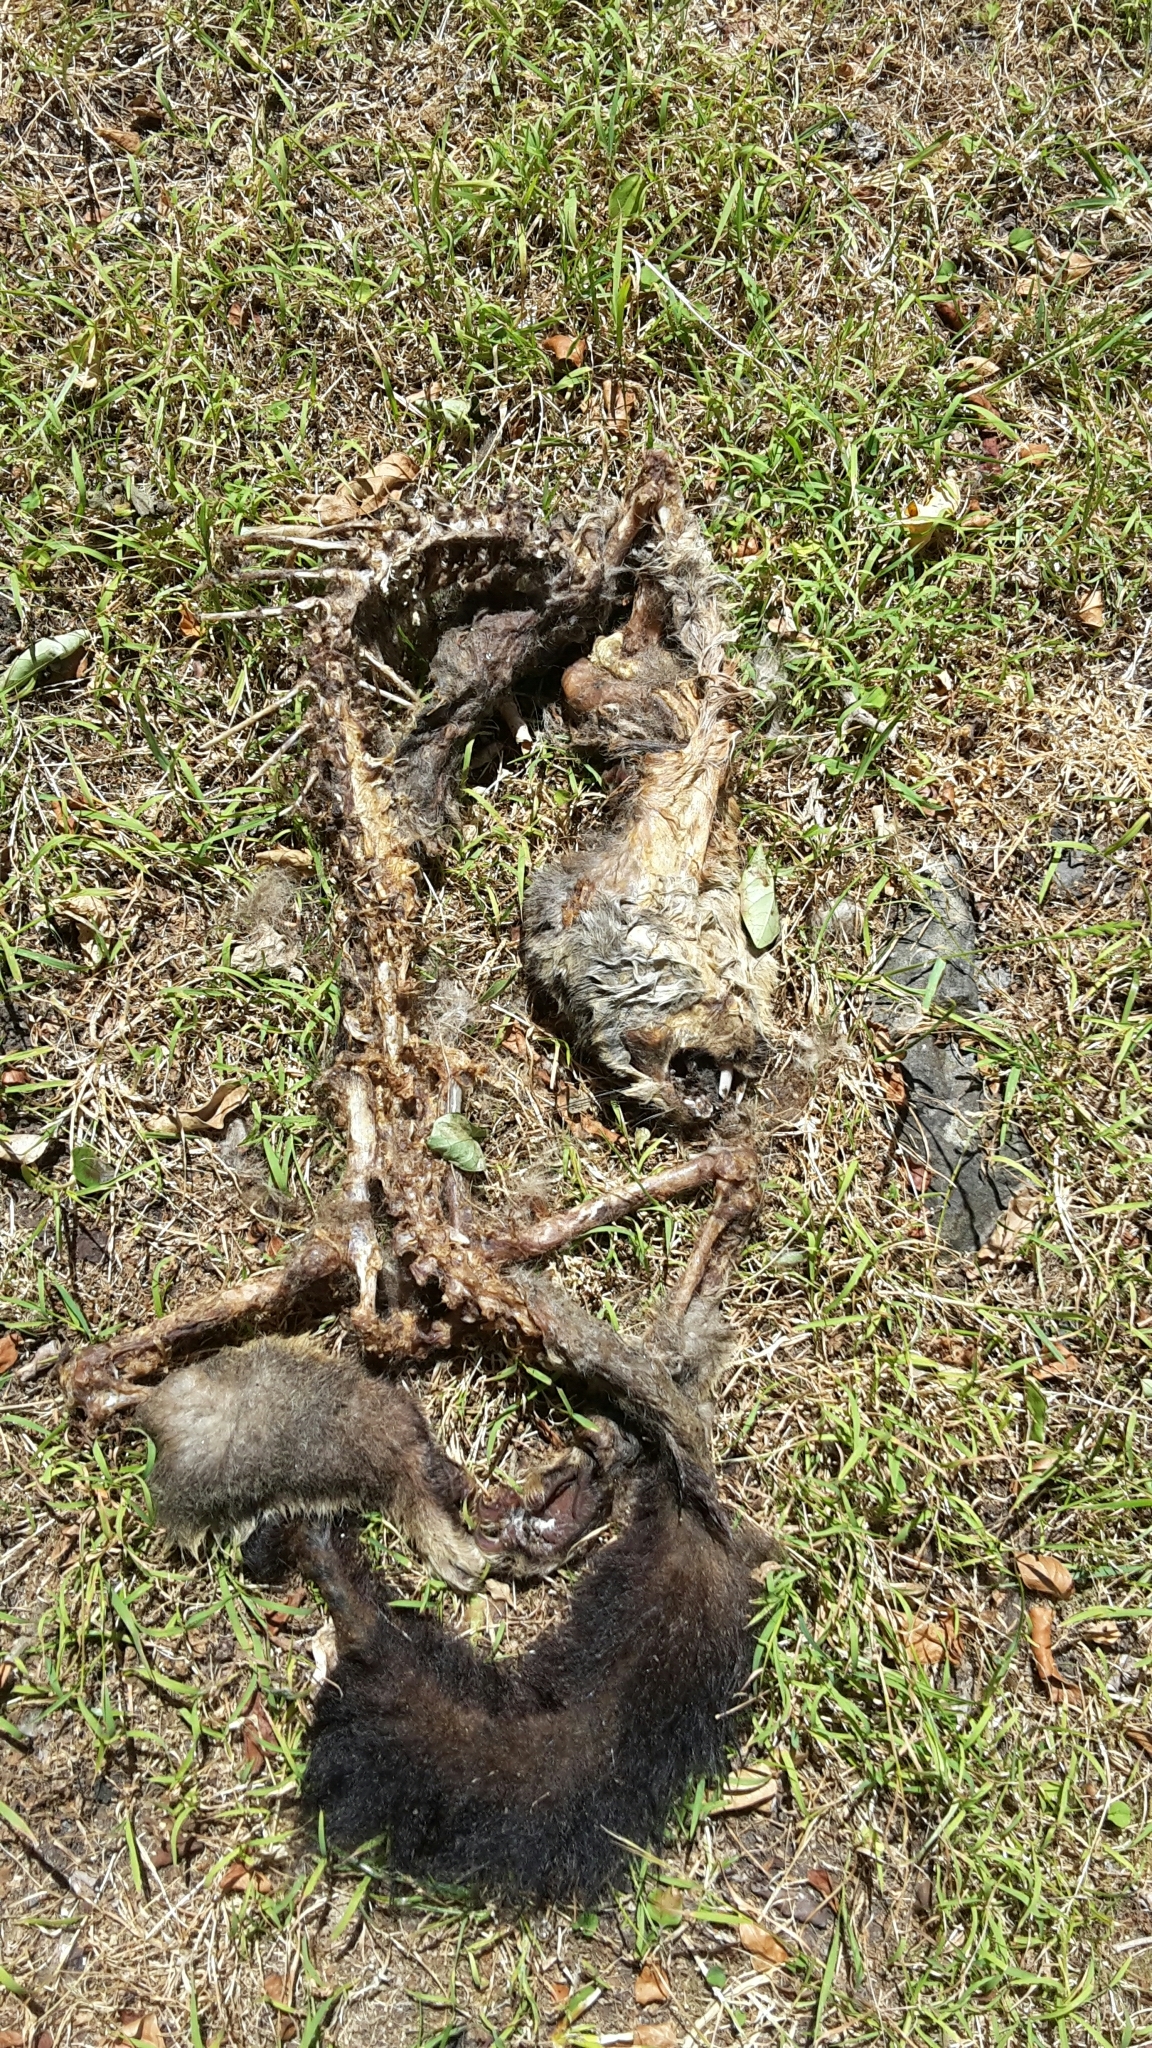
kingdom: Animalia
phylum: Chordata
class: Mammalia
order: Diprotodontia
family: Phalangeridae
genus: Trichosurus
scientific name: Trichosurus vulpecula
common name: Common brushtail
